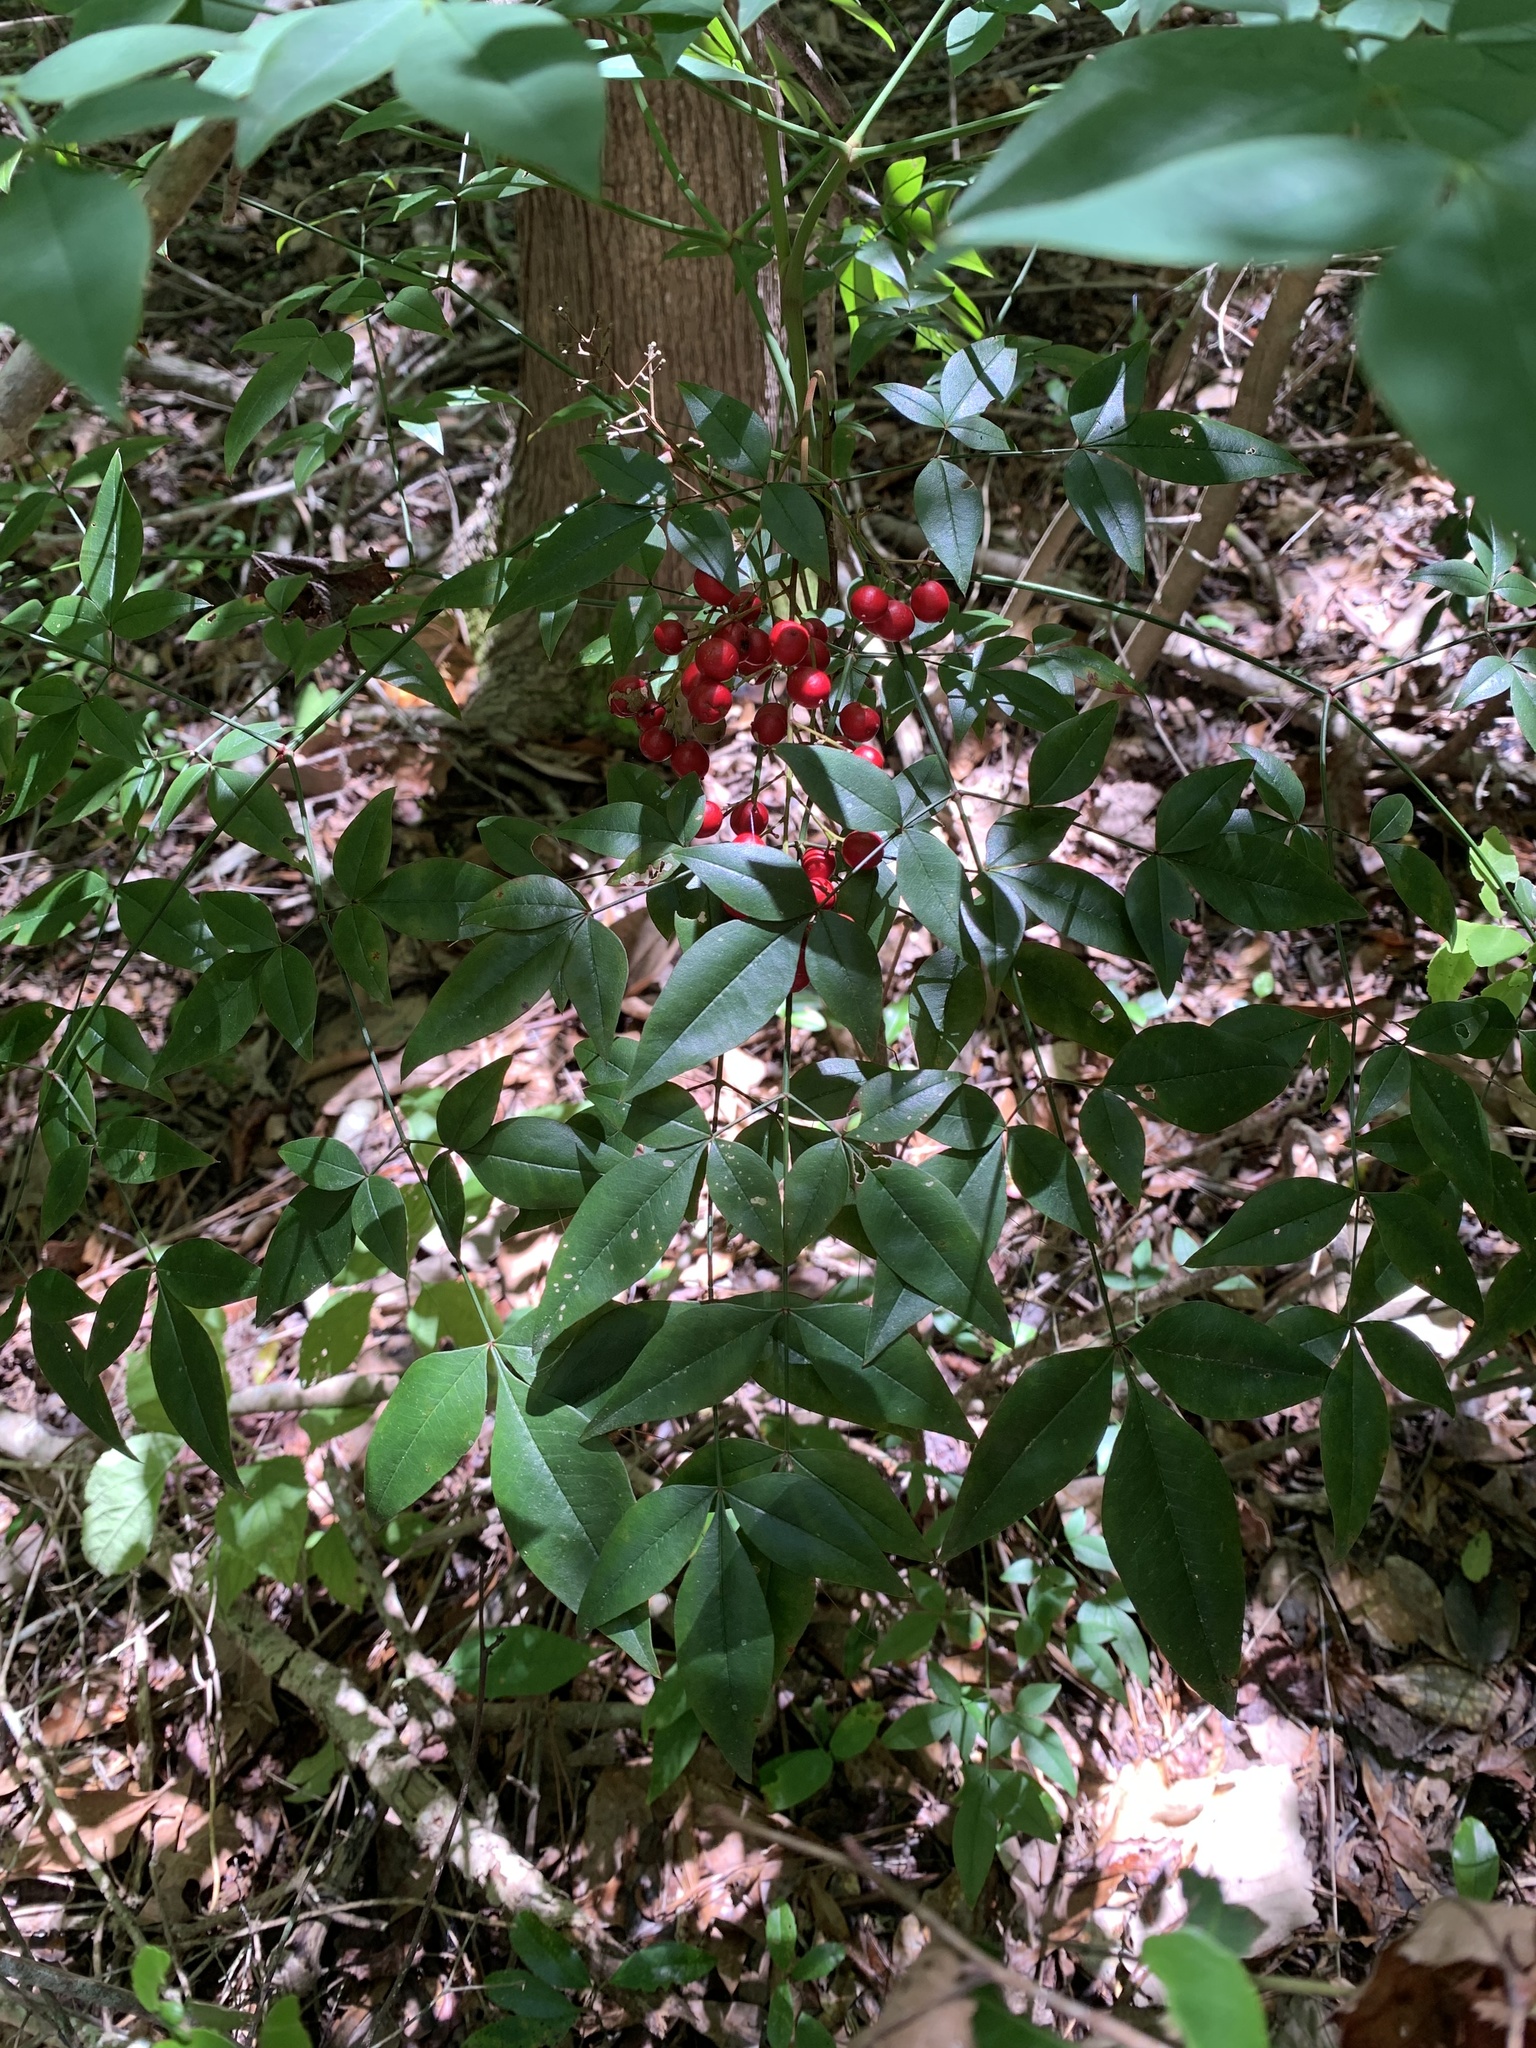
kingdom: Plantae
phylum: Tracheophyta
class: Magnoliopsida
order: Ranunculales
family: Berberidaceae
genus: Nandina
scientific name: Nandina domestica
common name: Sacred bamboo
